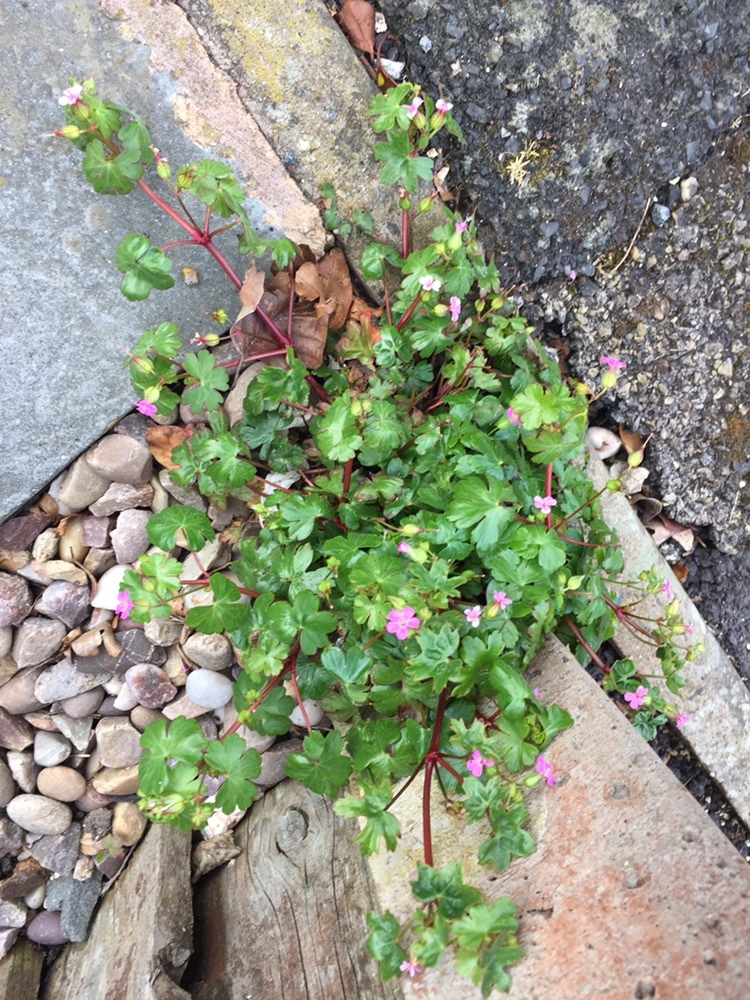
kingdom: Plantae
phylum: Tracheophyta
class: Magnoliopsida
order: Geraniales
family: Geraniaceae
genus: Geranium
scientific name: Geranium lucidum
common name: Shining crane's-bill
